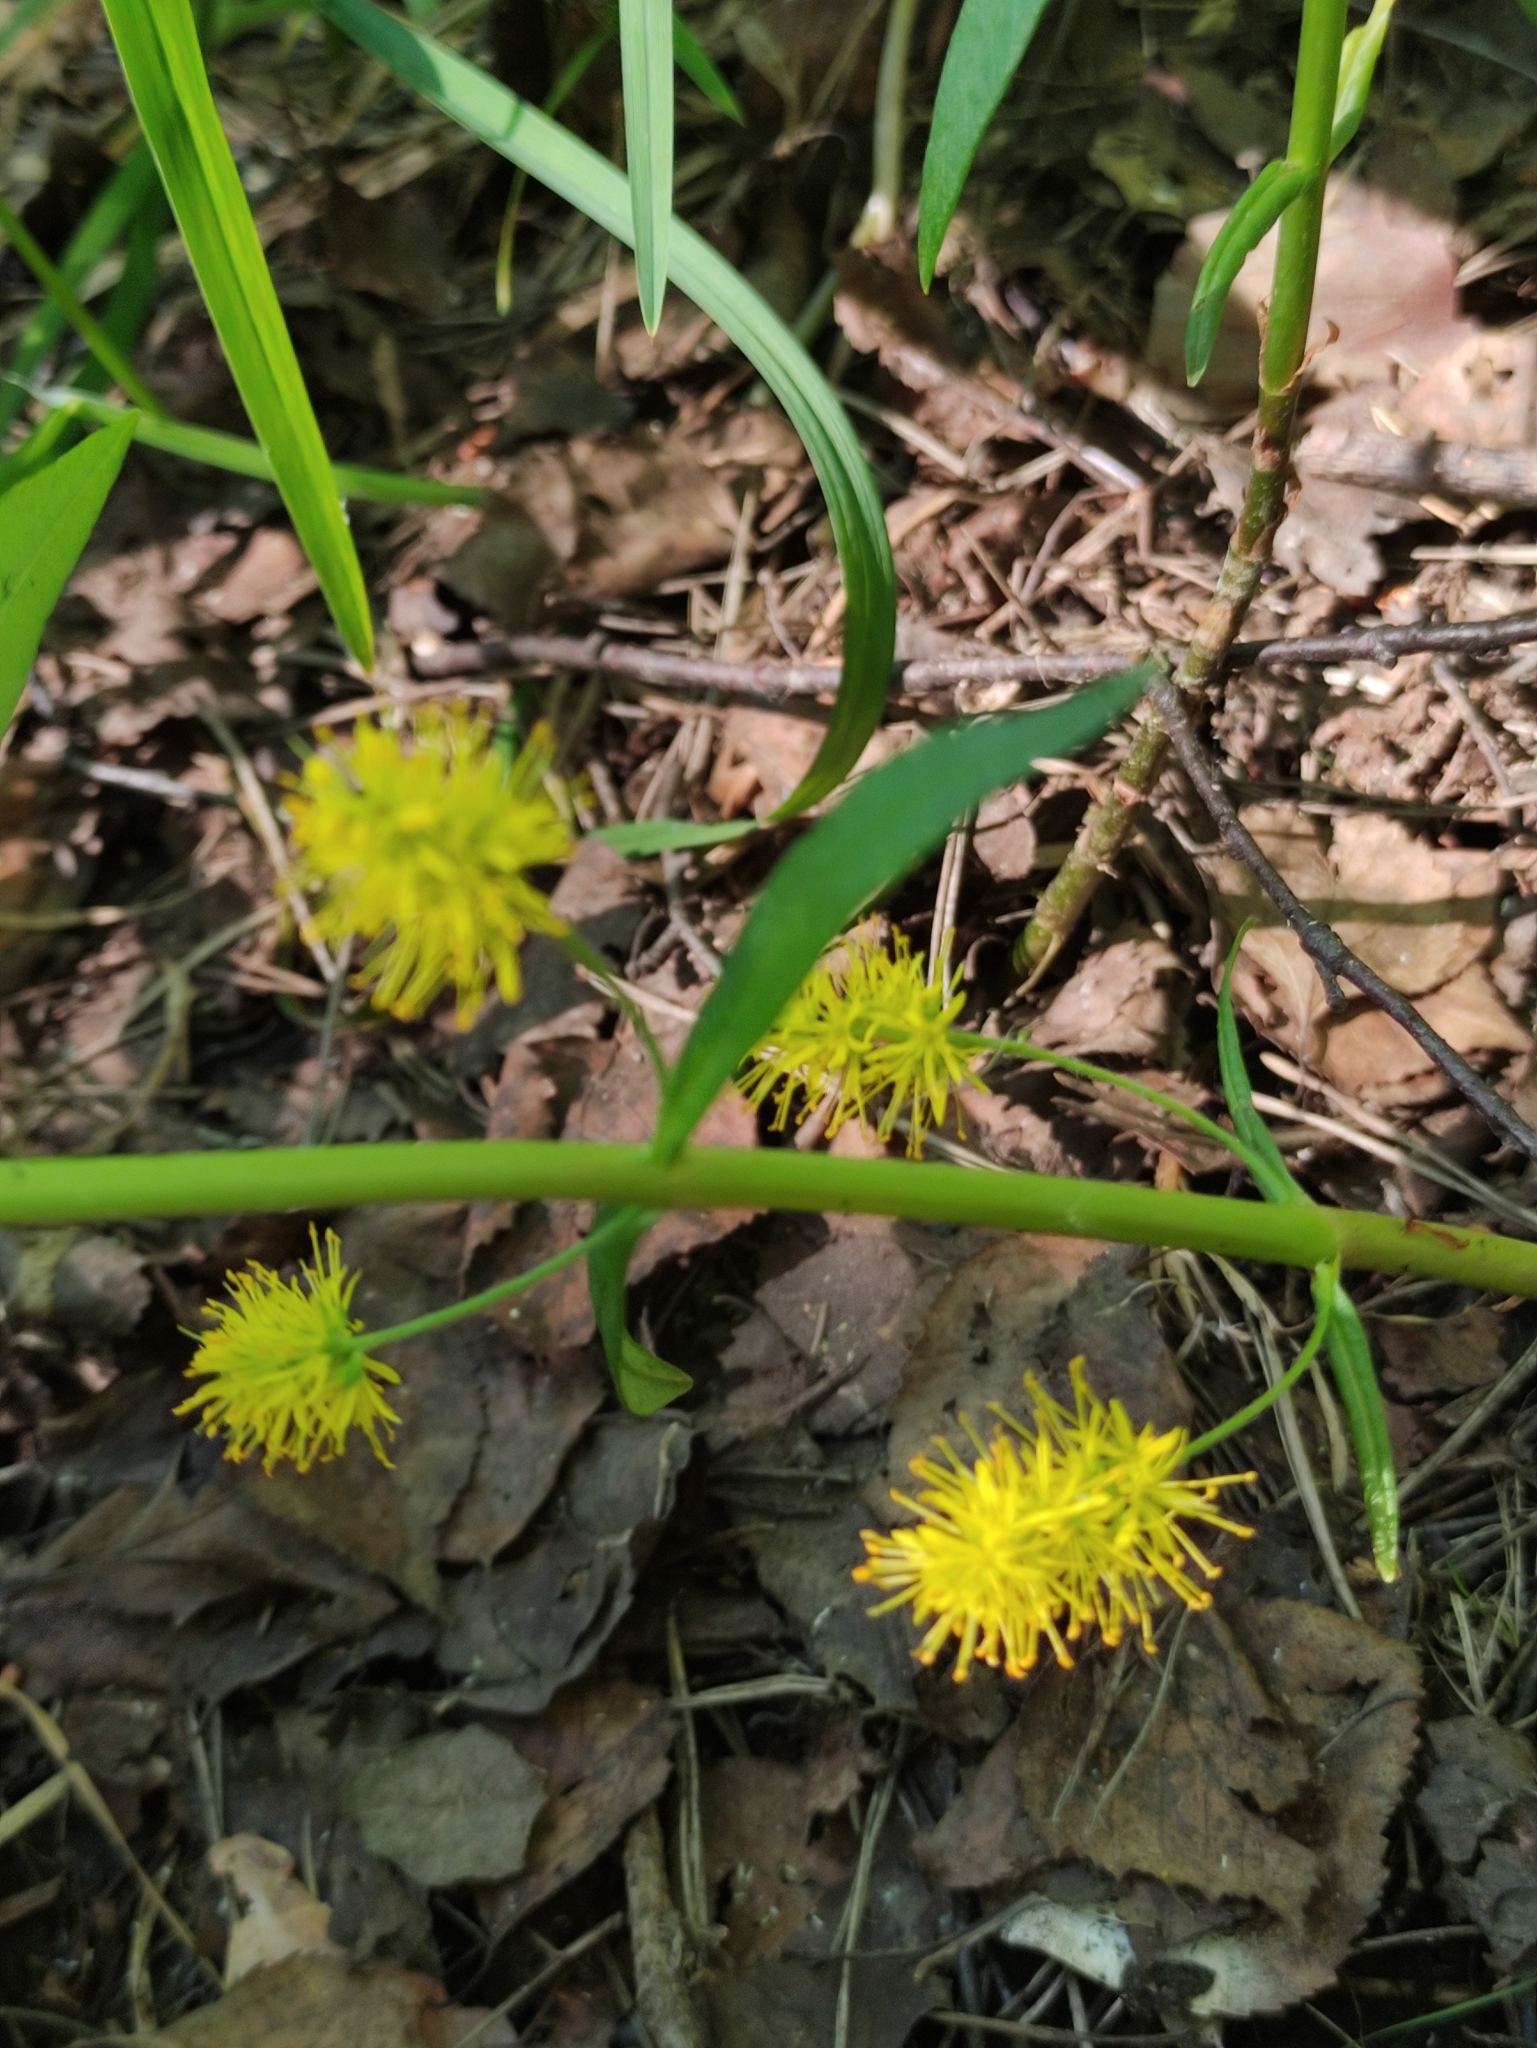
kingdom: Plantae
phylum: Tracheophyta
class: Magnoliopsida
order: Ericales
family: Primulaceae
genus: Lysimachia
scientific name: Lysimachia thyrsiflora
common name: Tufted loosestrife
